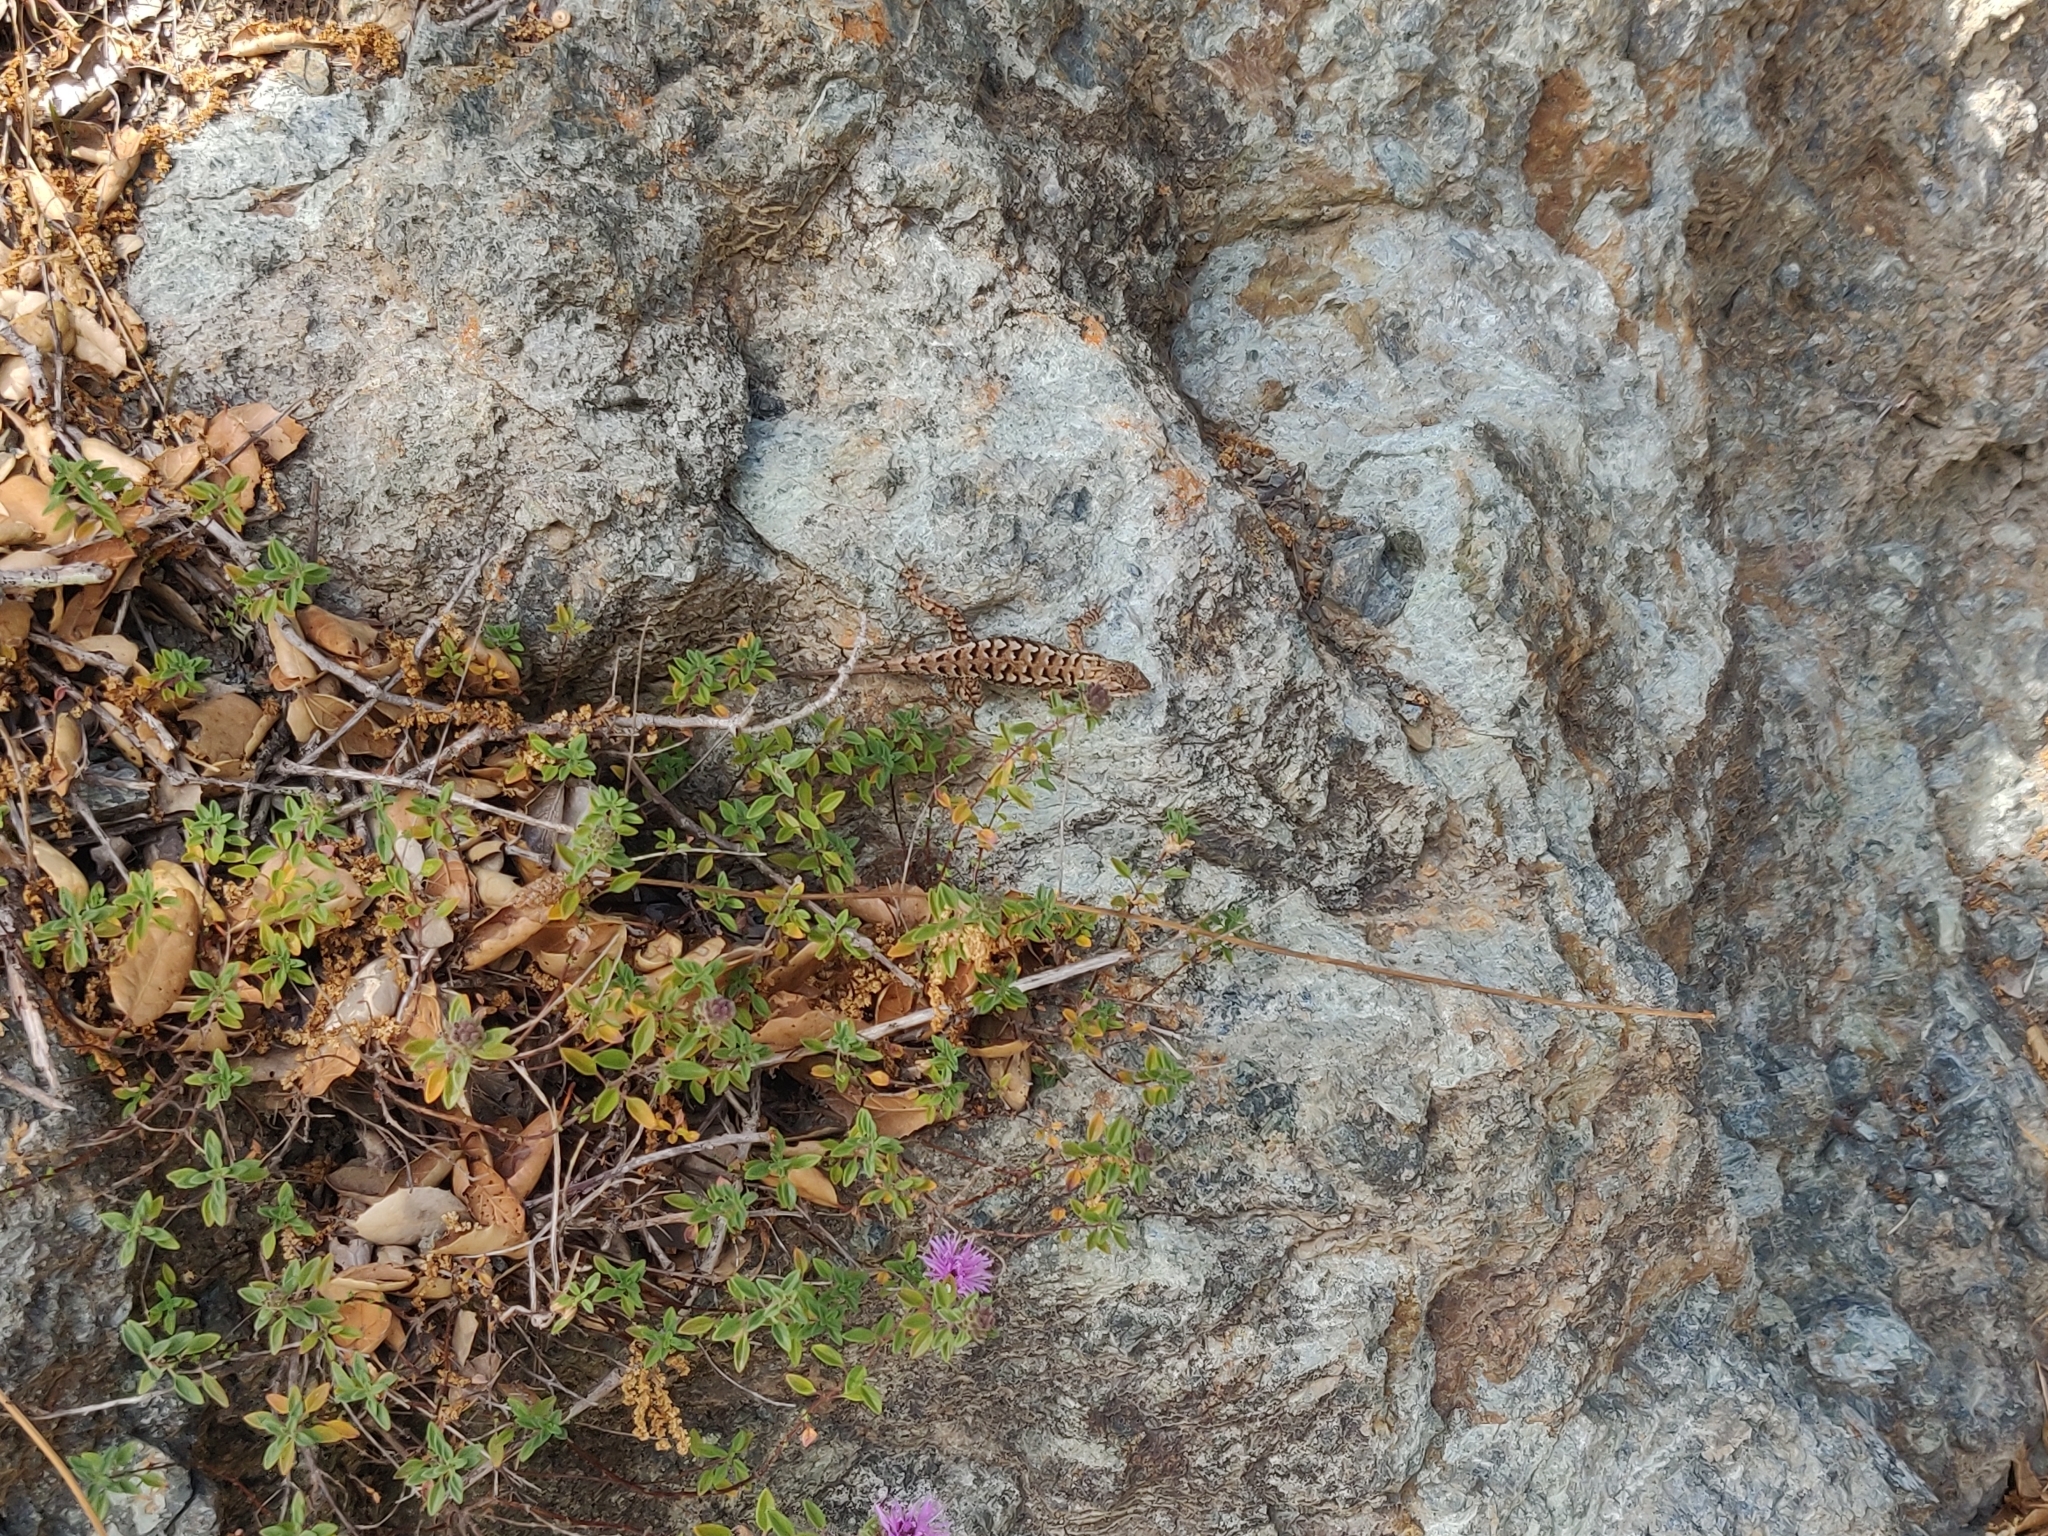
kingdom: Animalia
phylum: Chordata
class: Squamata
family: Phrynosomatidae
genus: Sceloporus
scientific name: Sceloporus occidentalis
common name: Western fence lizard
